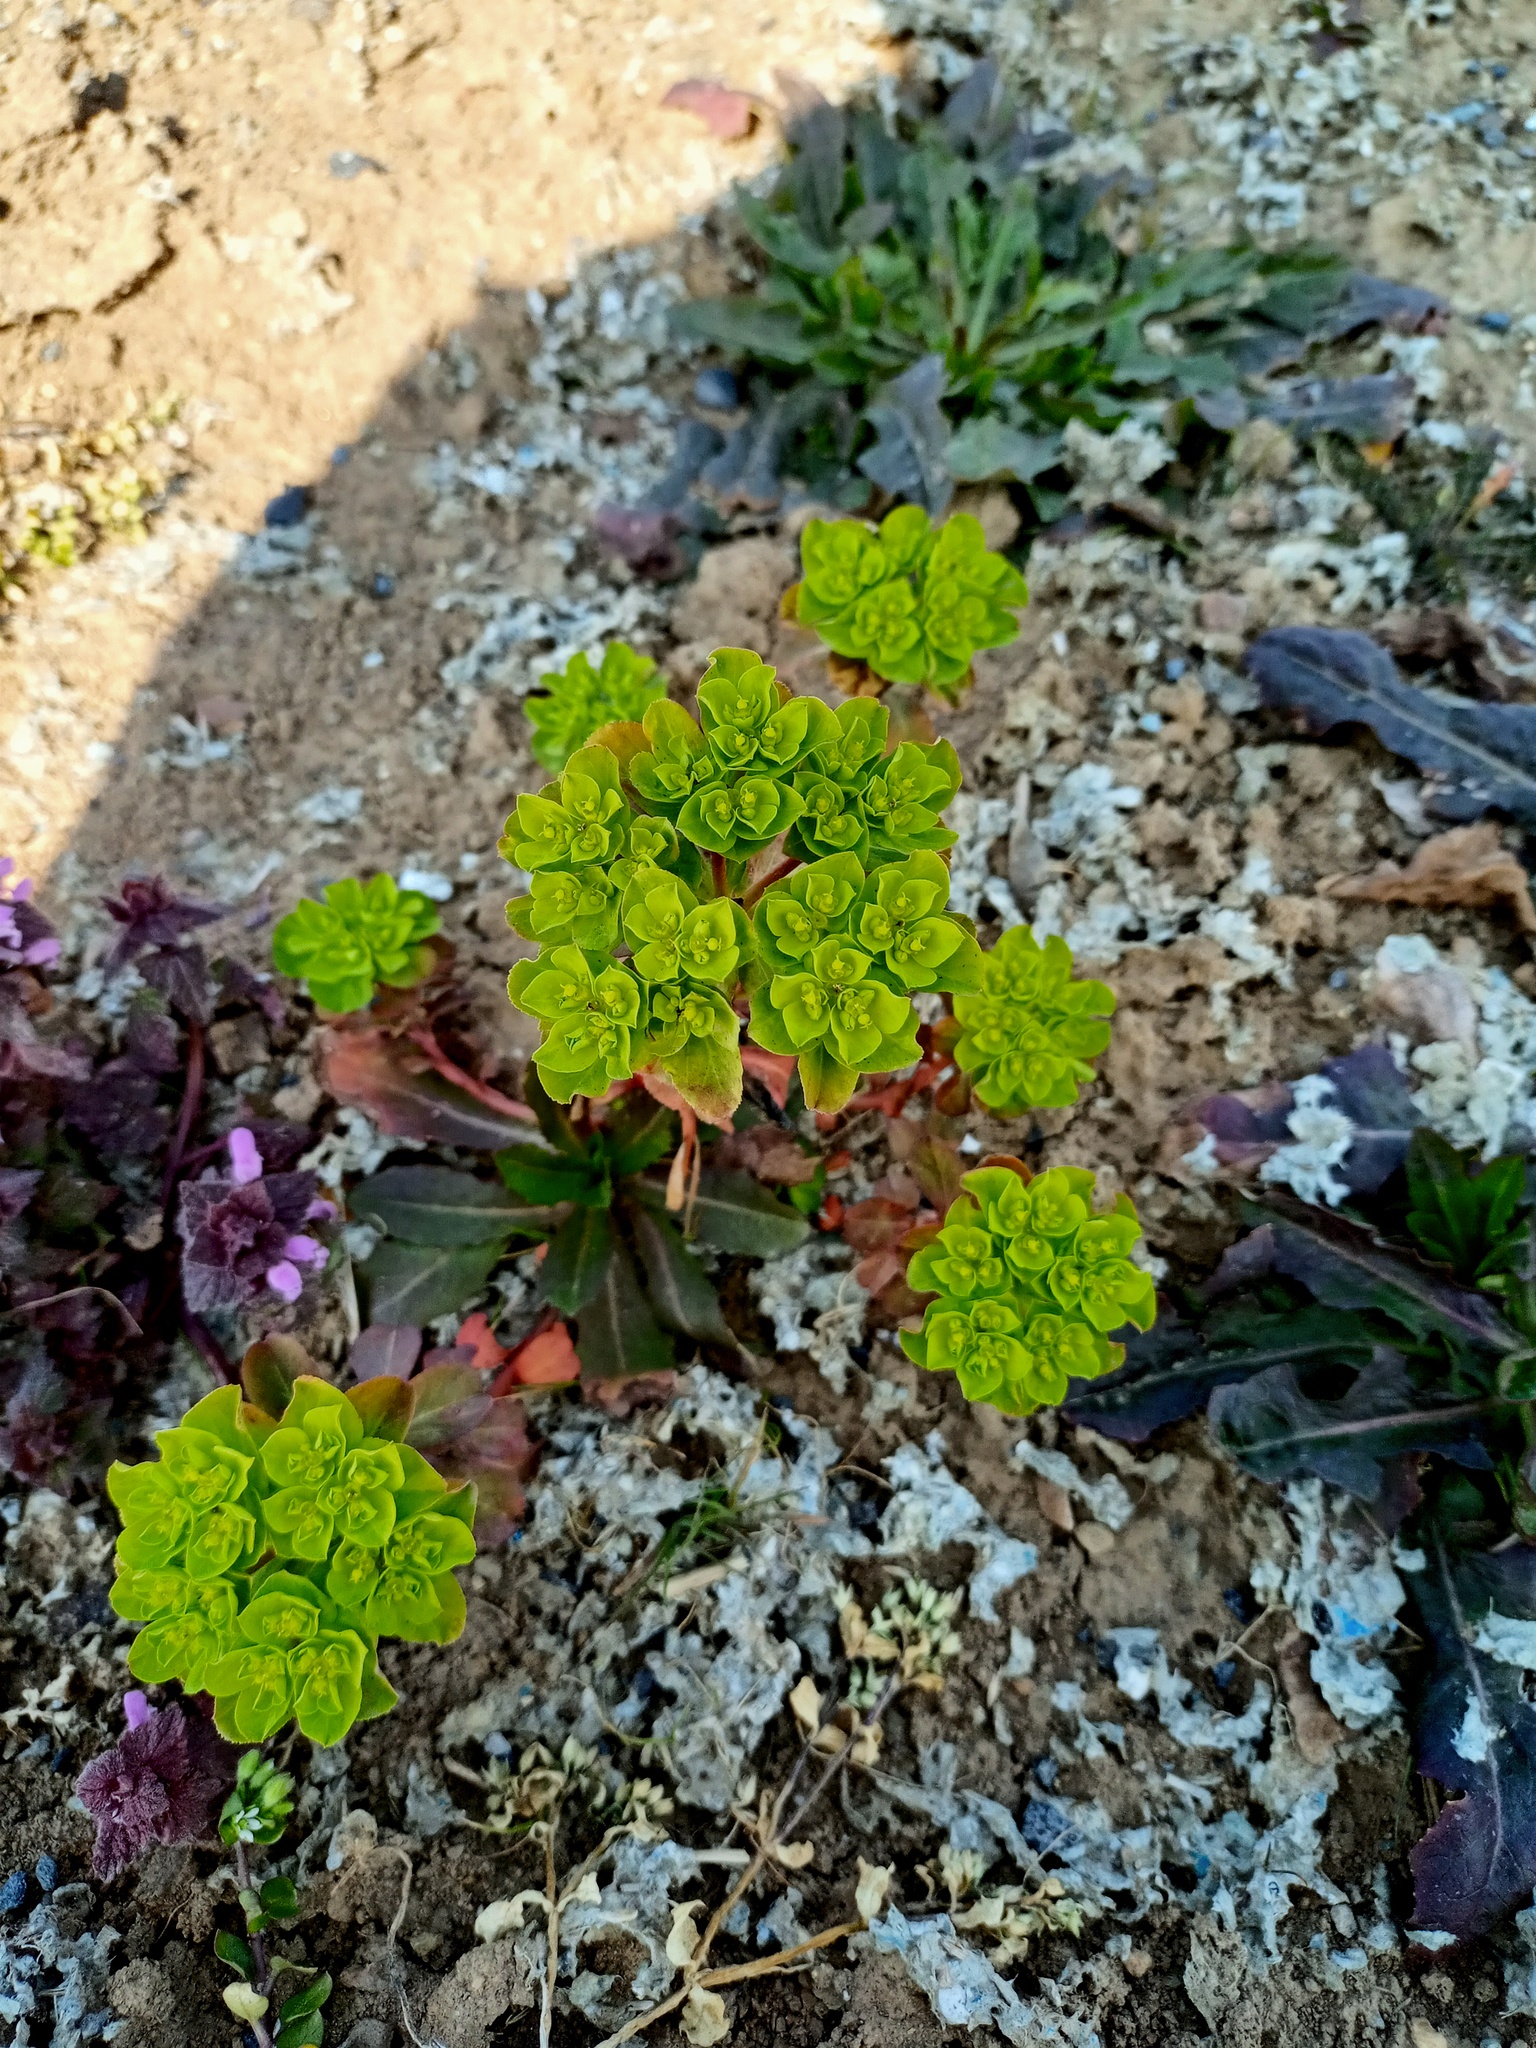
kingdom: Plantae
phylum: Tracheophyta
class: Magnoliopsida
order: Malpighiales
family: Euphorbiaceae
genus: Euphorbia
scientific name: Euphorbia helioscopia
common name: Sun spurge
